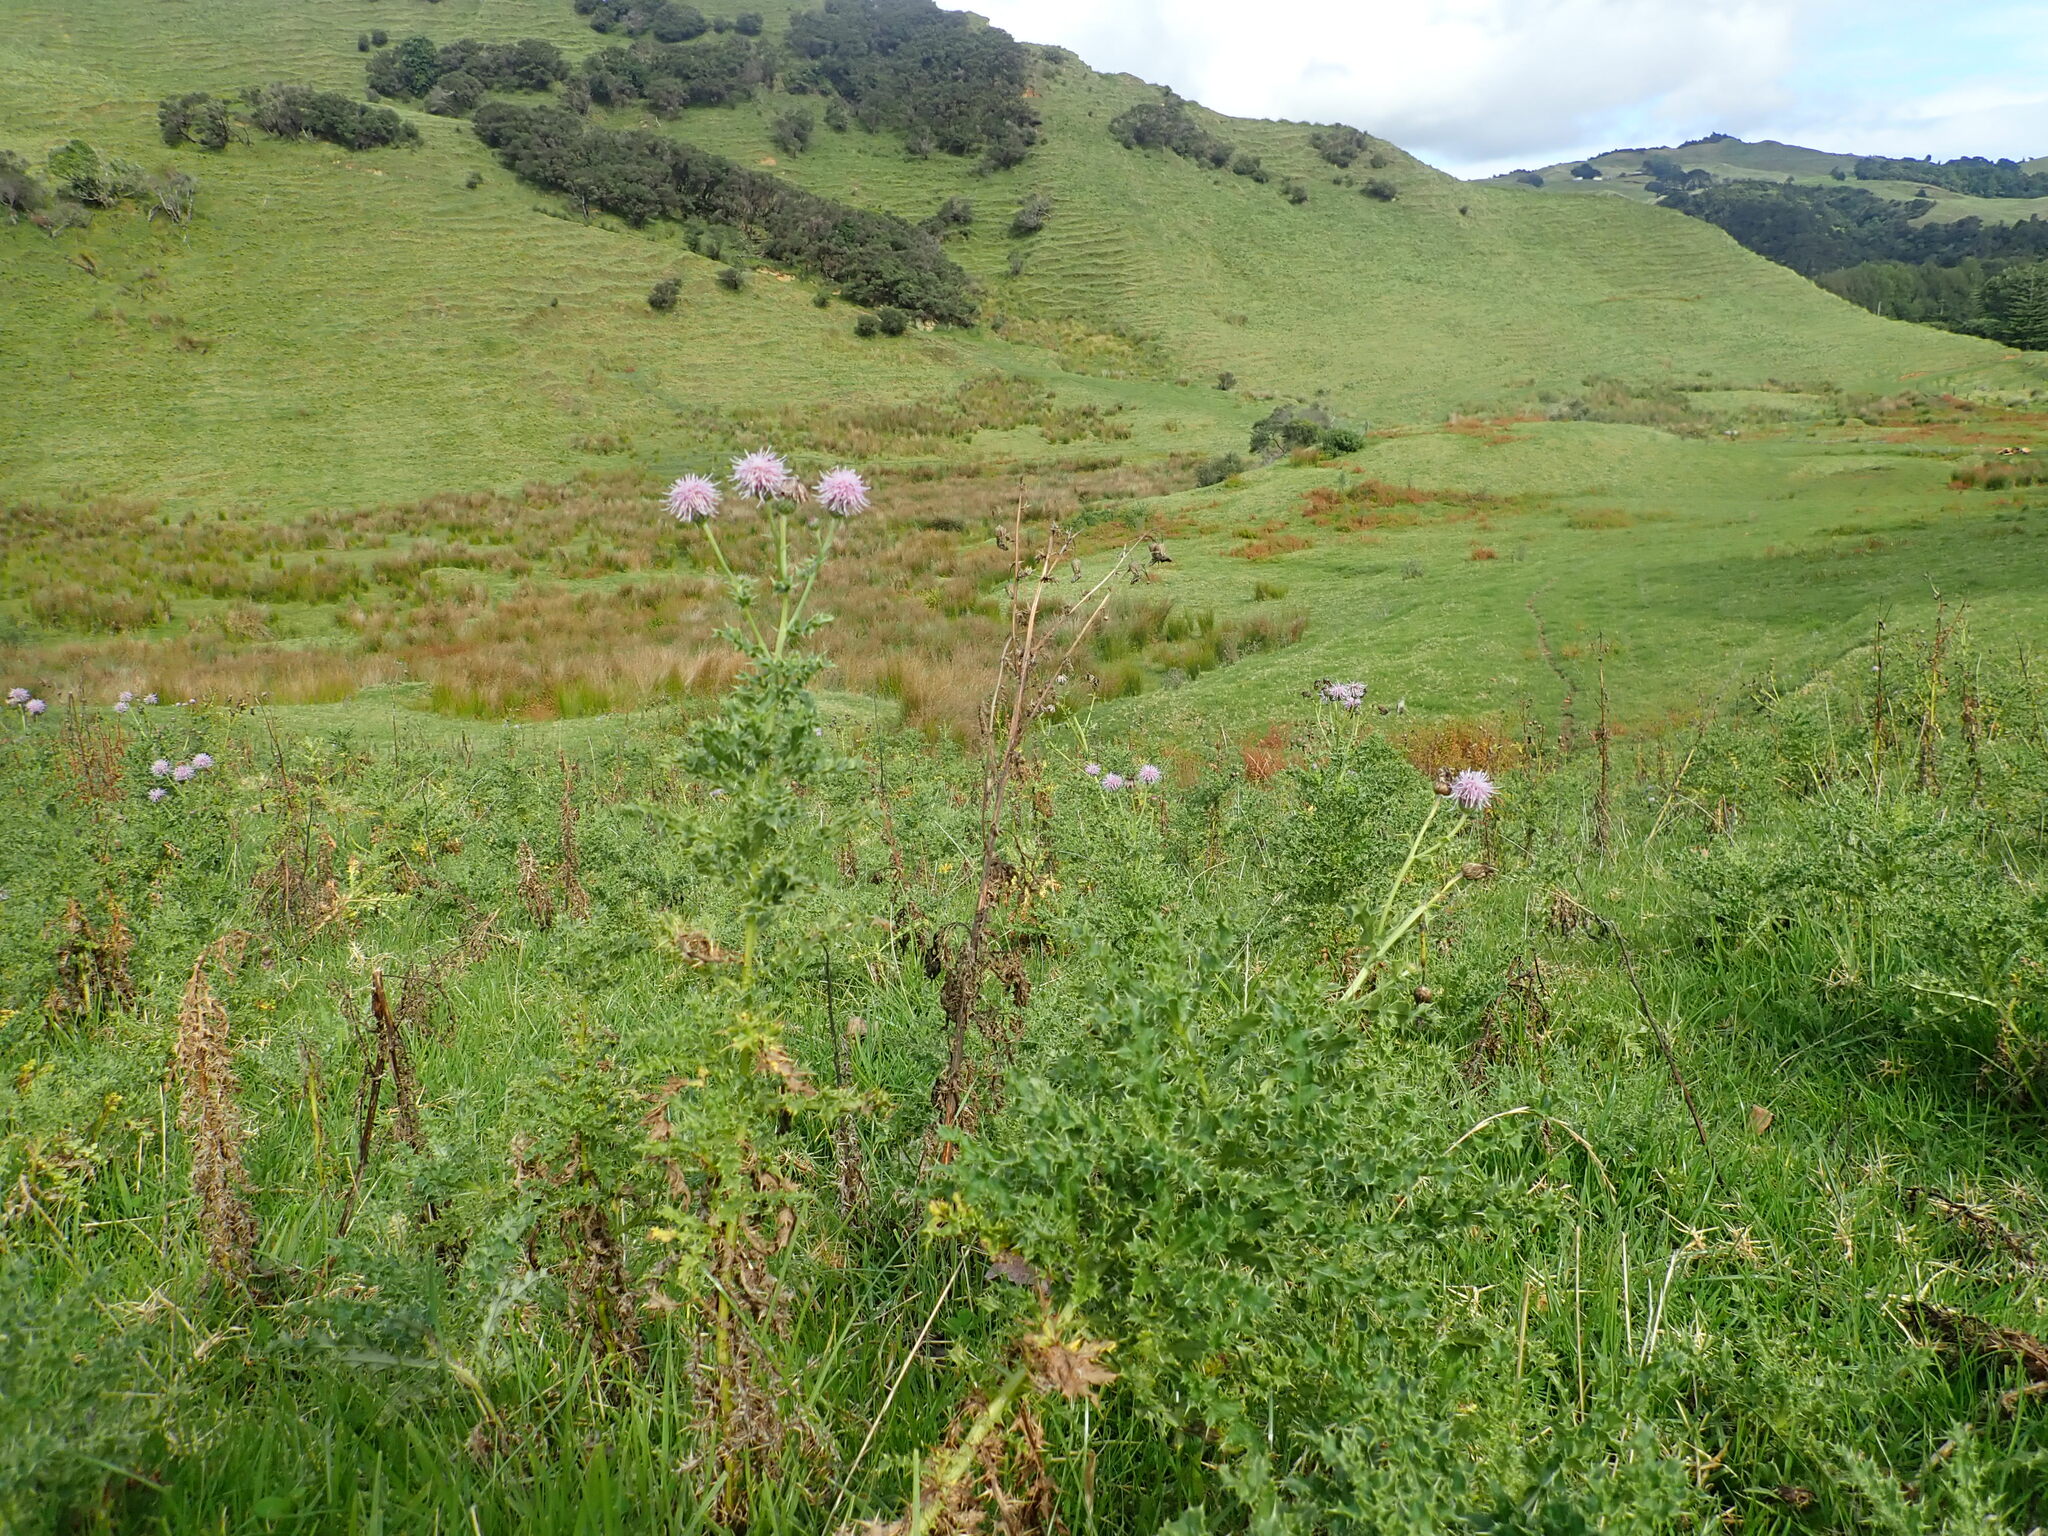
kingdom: Plantae
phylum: Tracheophyta
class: Magnoliopsida
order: Asterales
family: Asteraceae
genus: Cirsium
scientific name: Cirsium arvense
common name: Creeping thistle
